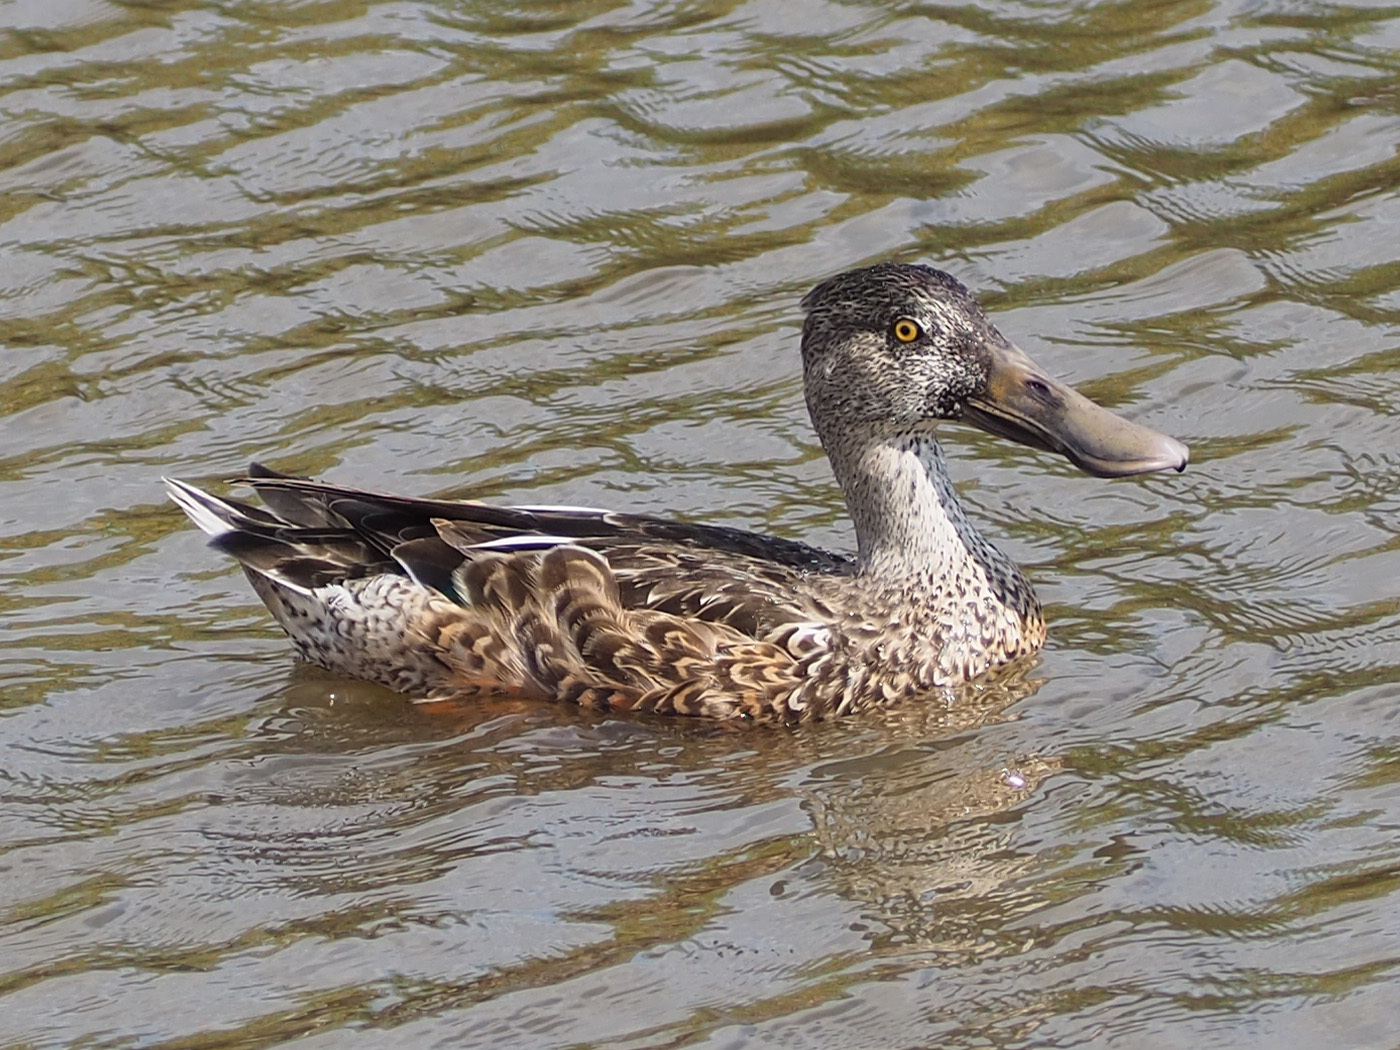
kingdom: Animalia
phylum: Chordata
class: Aves
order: Anseriformes
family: Anatidae
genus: Spatula
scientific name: Spatula clypeata
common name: Northern shoveler
